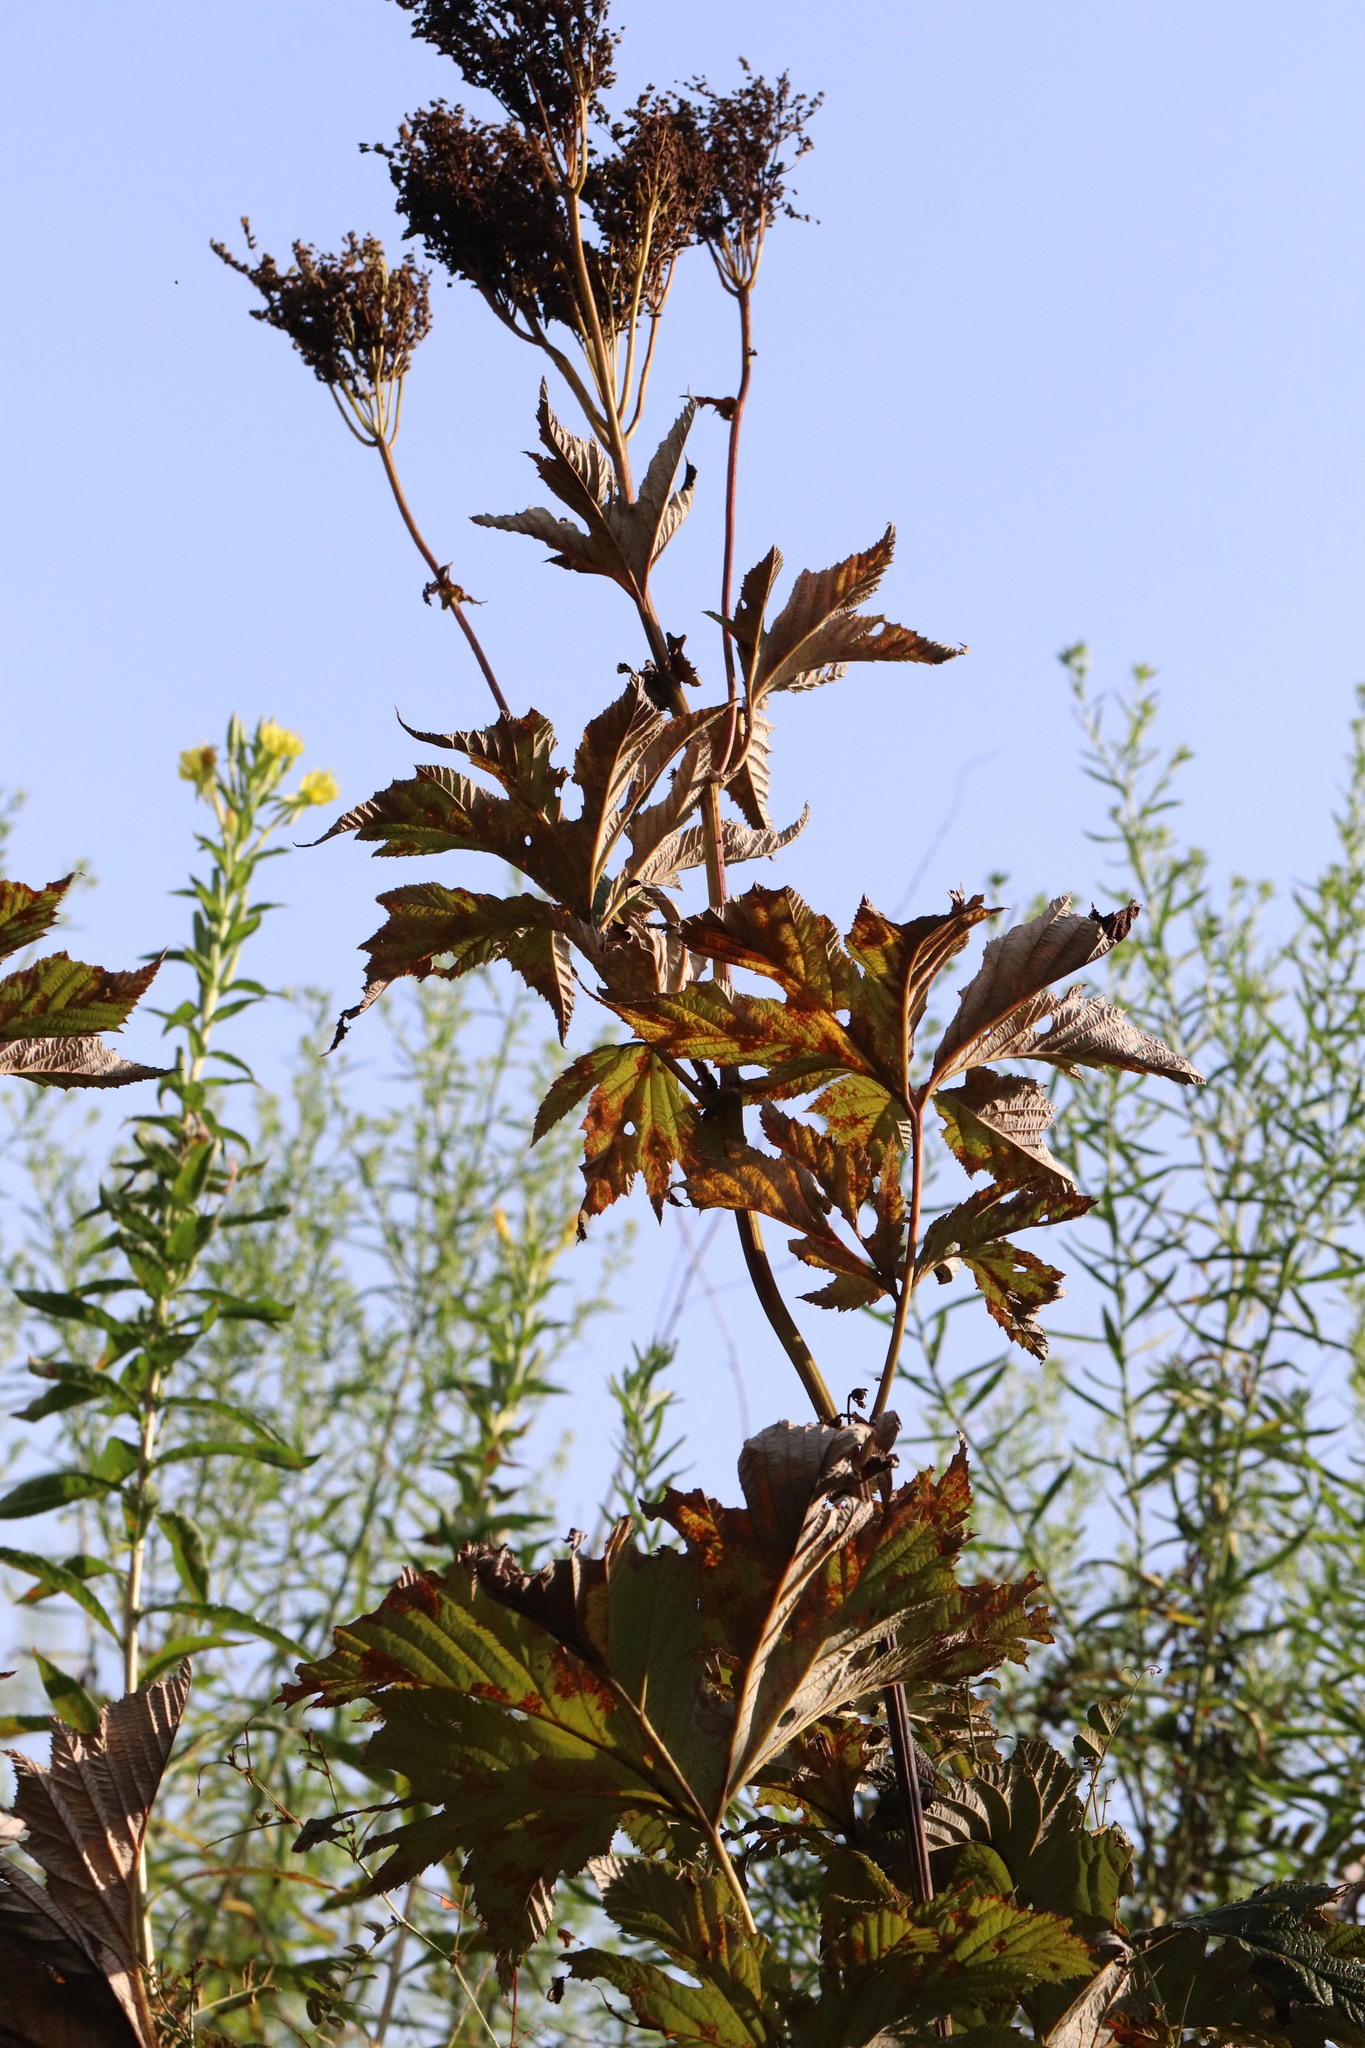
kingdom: Plantae
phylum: Tracheophyta
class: Magnoliopsida
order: Rosales
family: Rosaceae
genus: Filipendula
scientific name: Filipendula digitata
